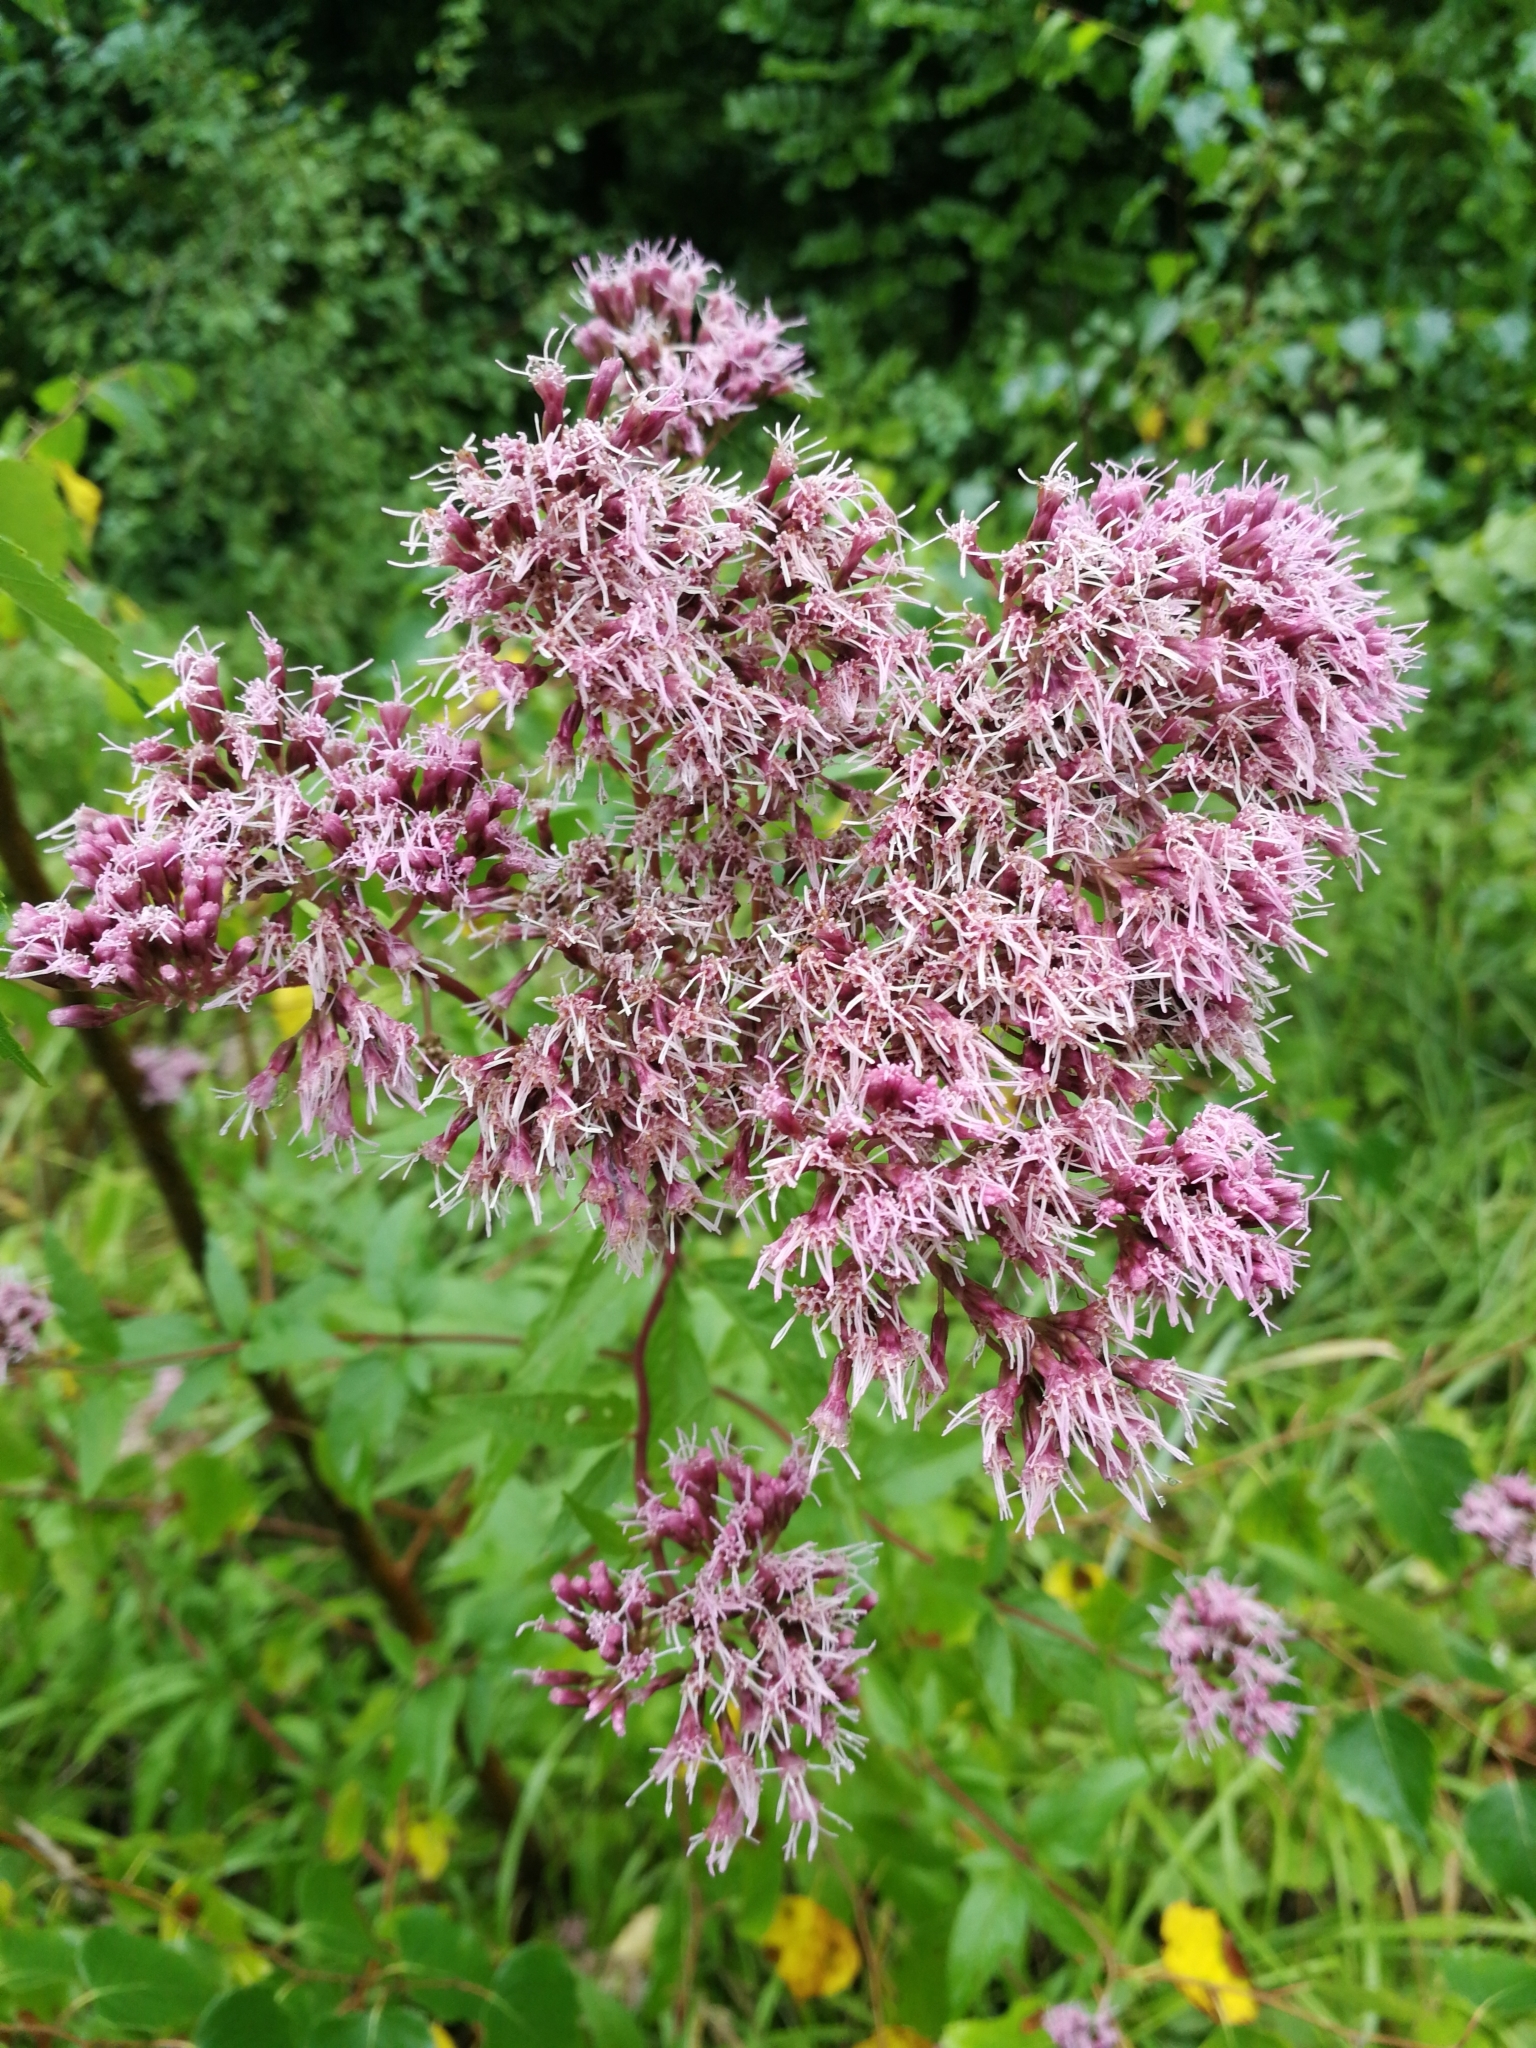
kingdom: Plantae
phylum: Tracheophyta
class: Magnoliopsida
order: Asterales
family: Asteraceae
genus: Eupatorium
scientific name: Eupatorium cannabinum
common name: Hemp-agrimony
